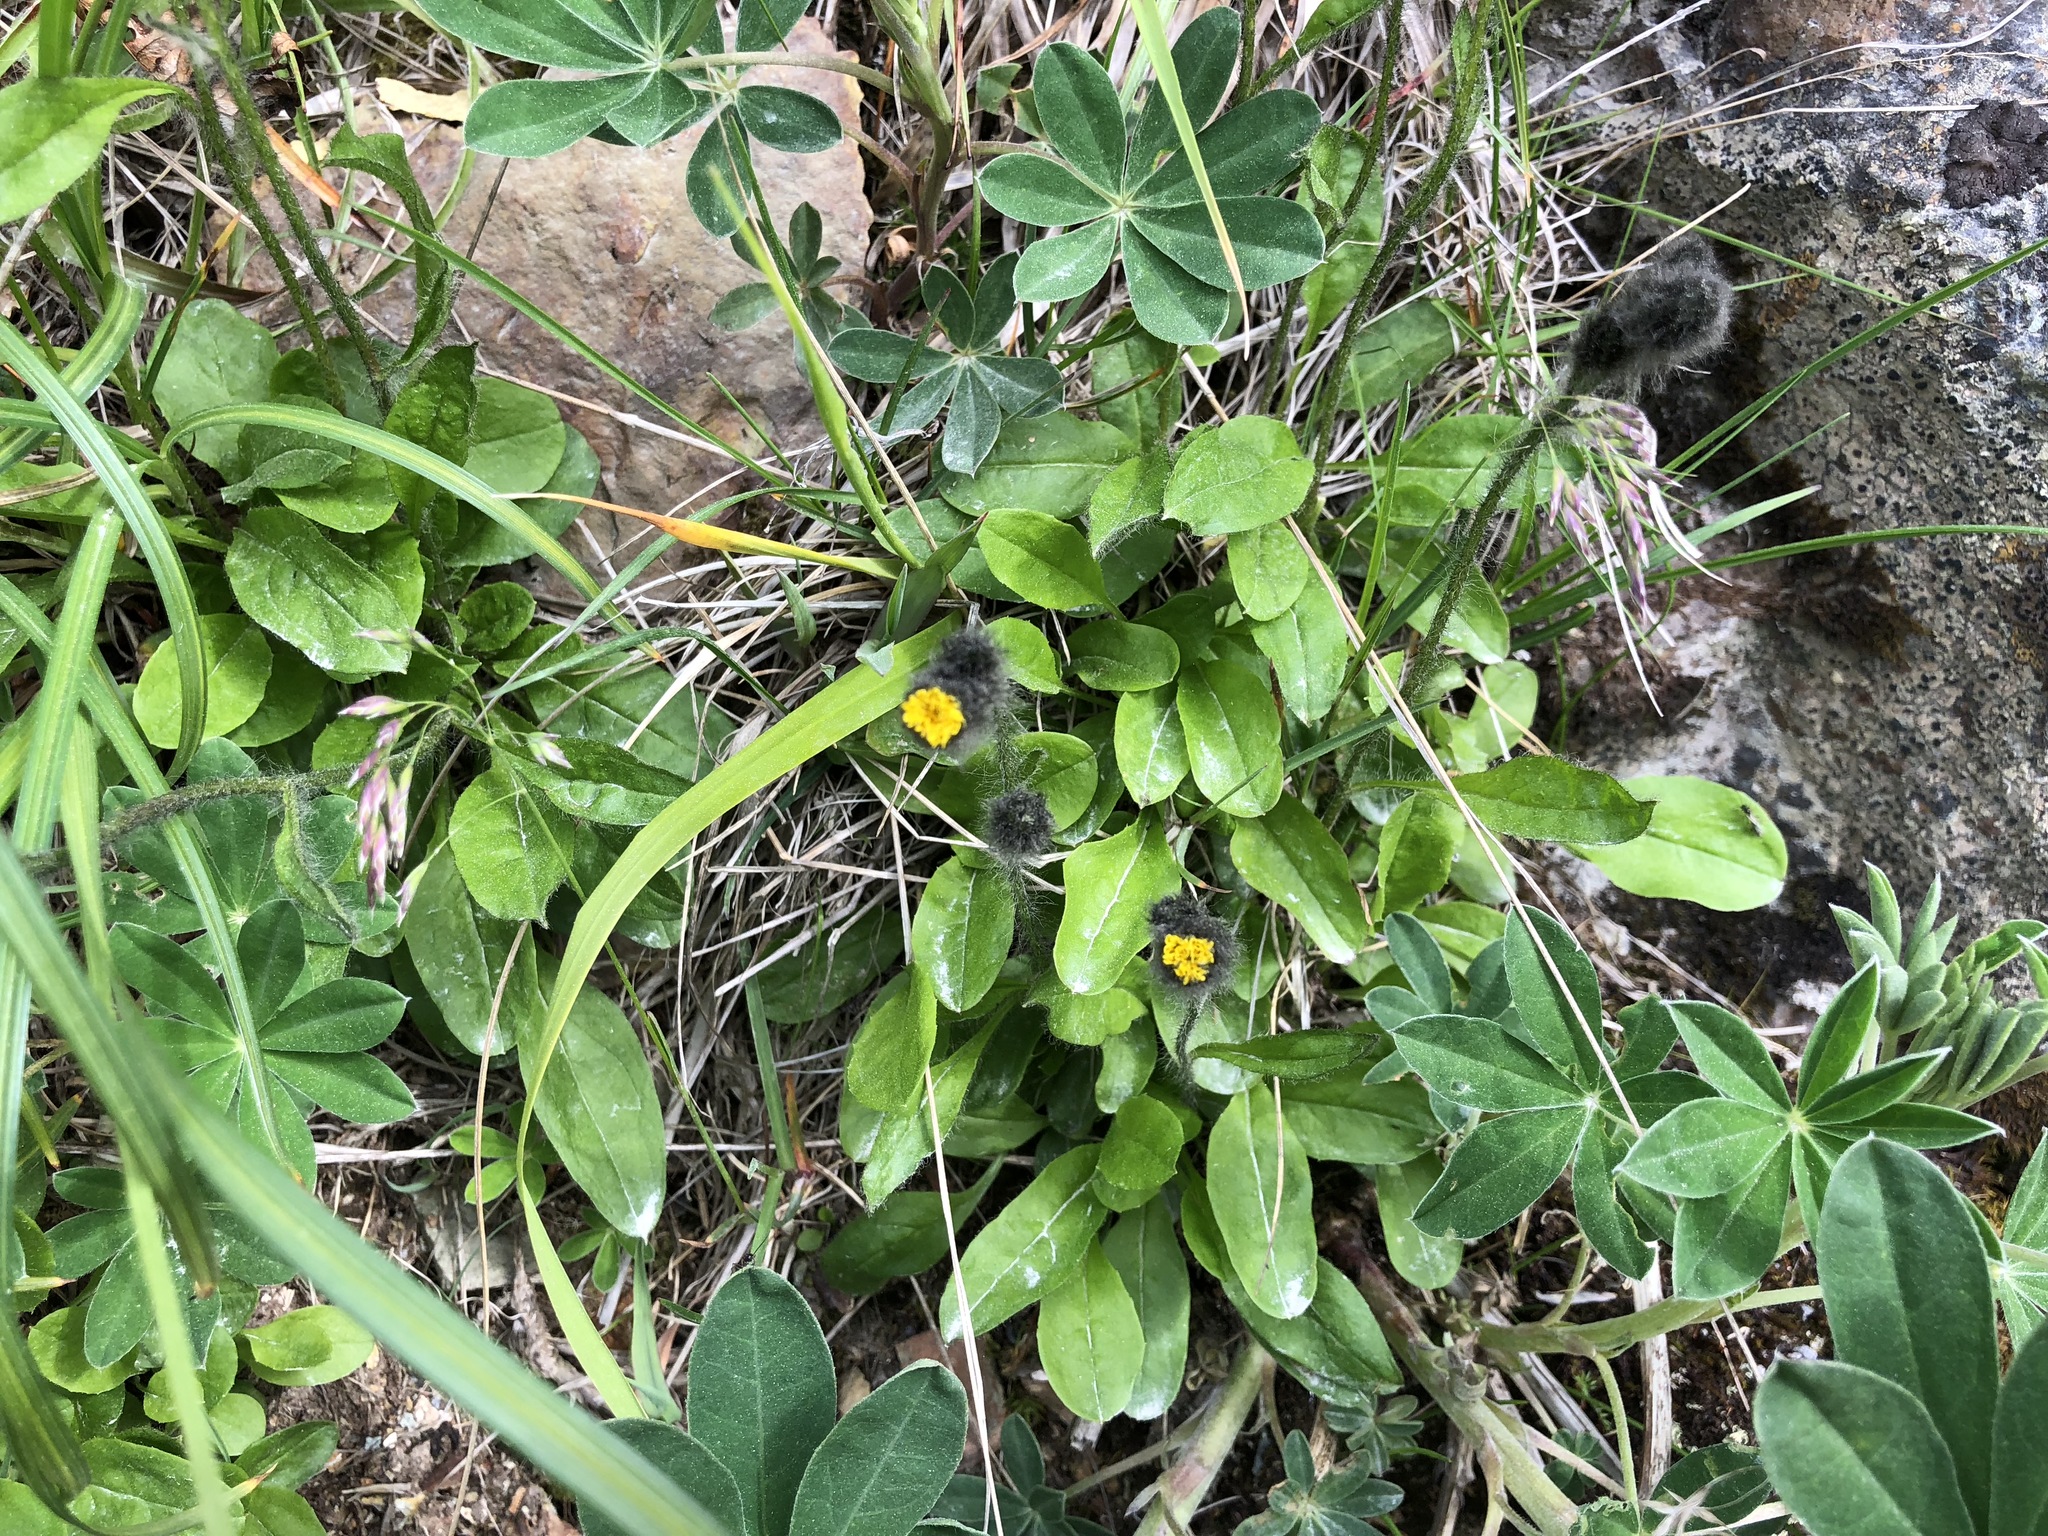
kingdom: Plantae
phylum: Tracheophyta
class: Magnoliopsida
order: Asterales
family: Asteraceae
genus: Hieracium
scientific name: Hieracium triste
